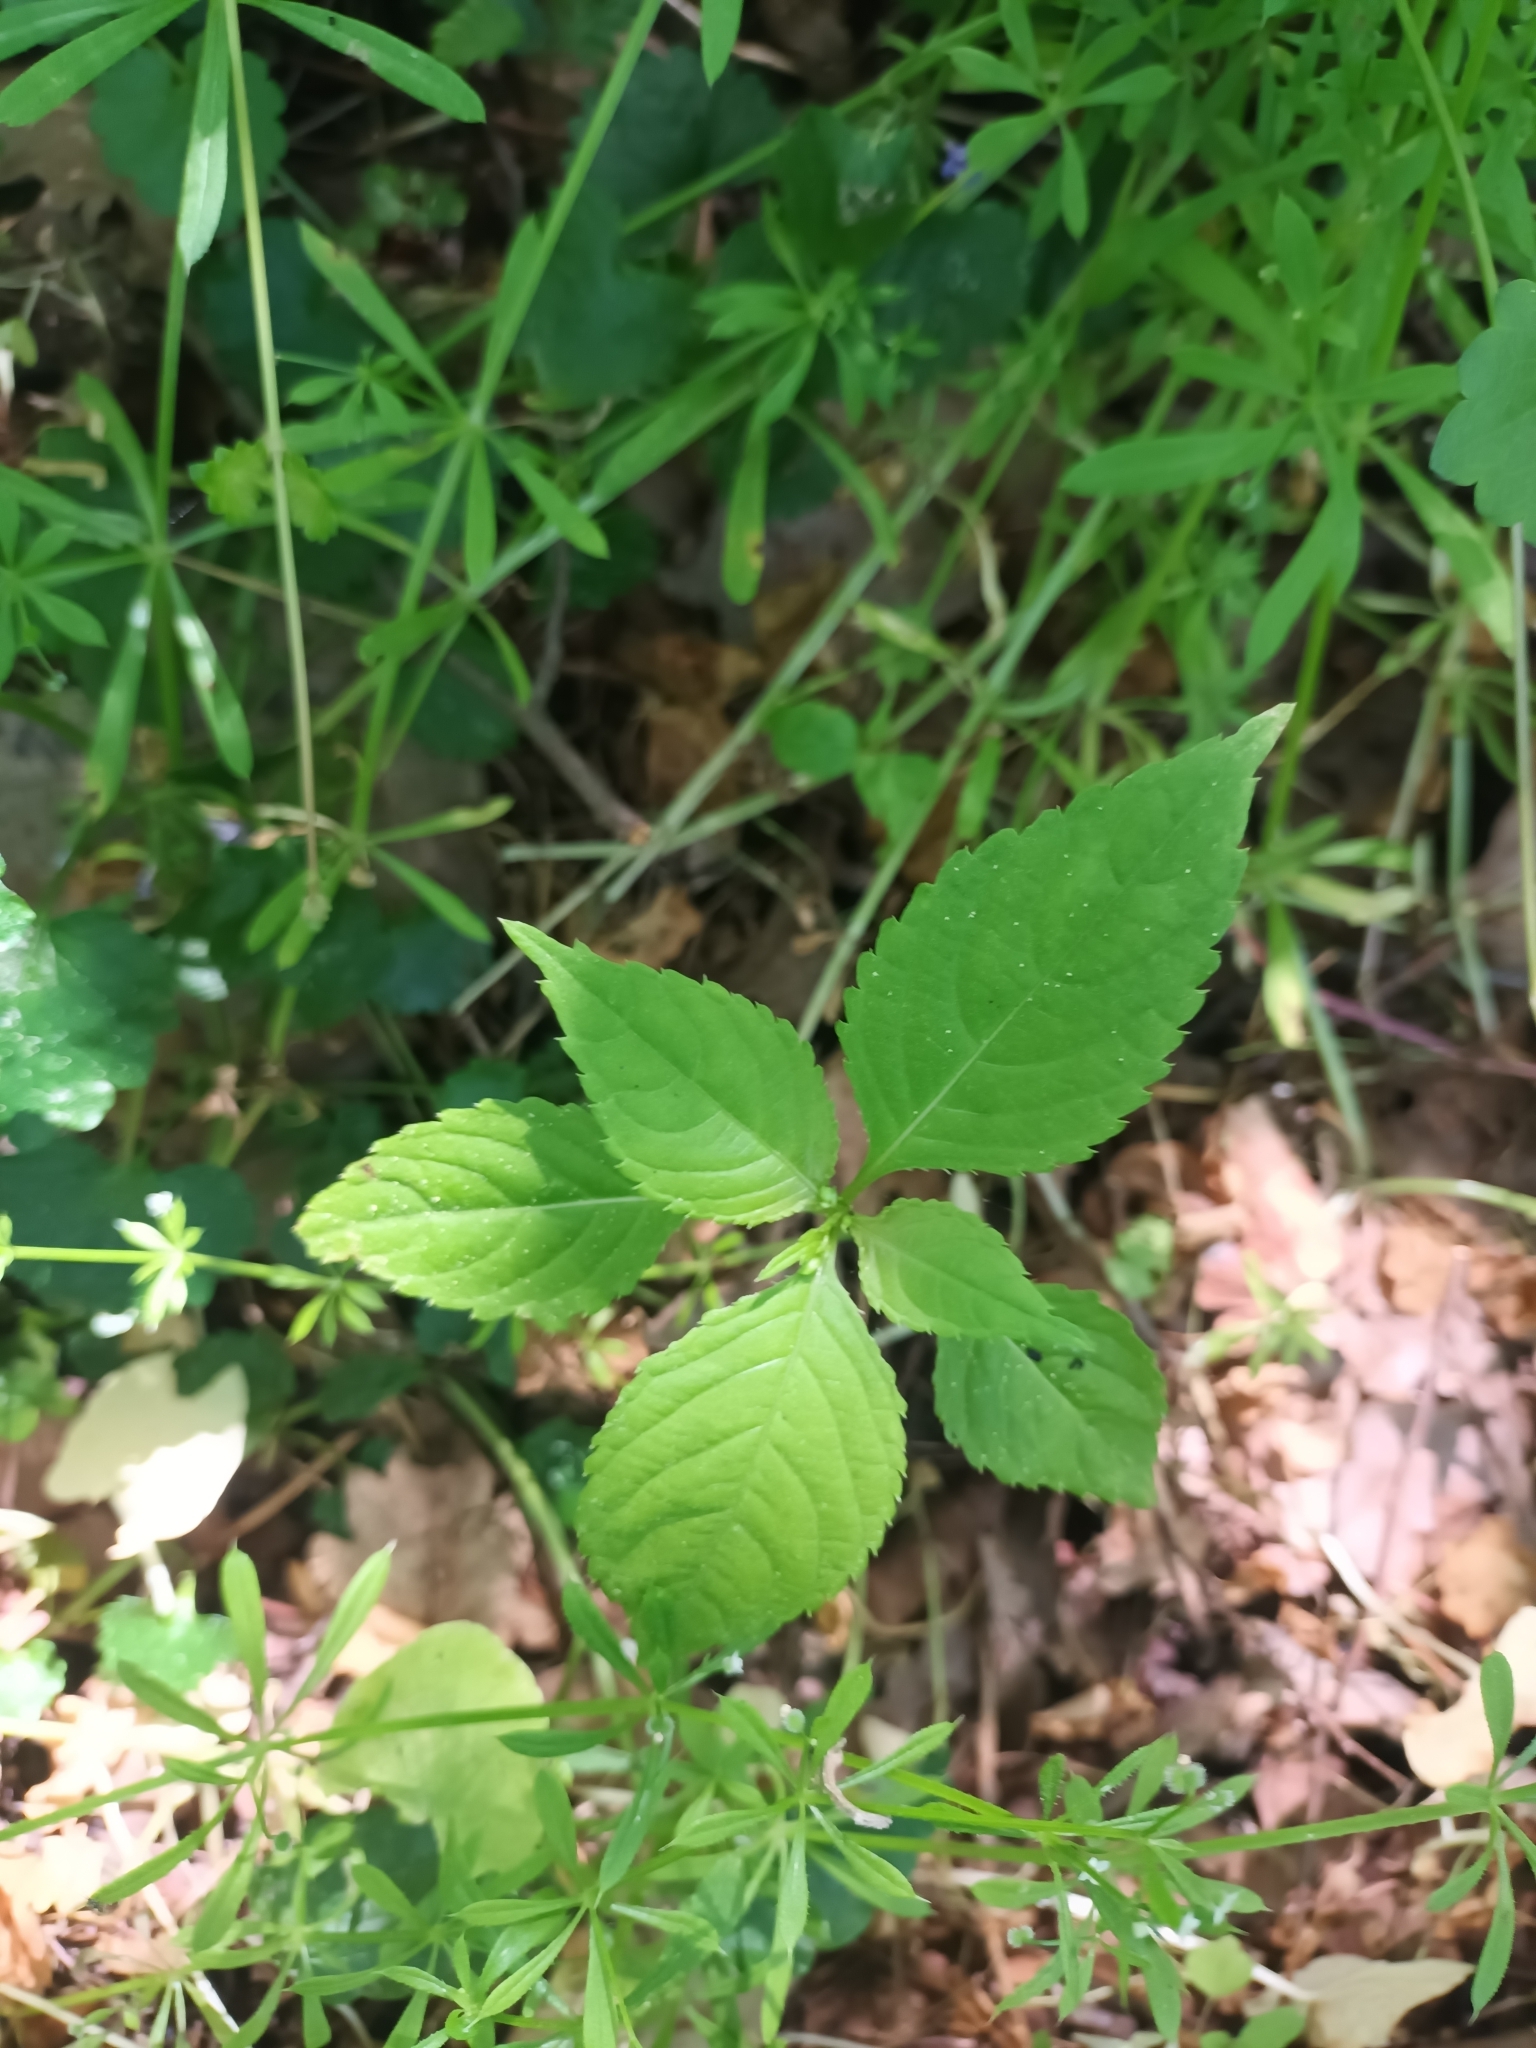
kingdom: Plantae
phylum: Tracheophyta
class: Magnoliopsida
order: Ericales
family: Balsaminaceae
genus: Impatiens
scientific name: Impatiens parviflora
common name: Small balsam
